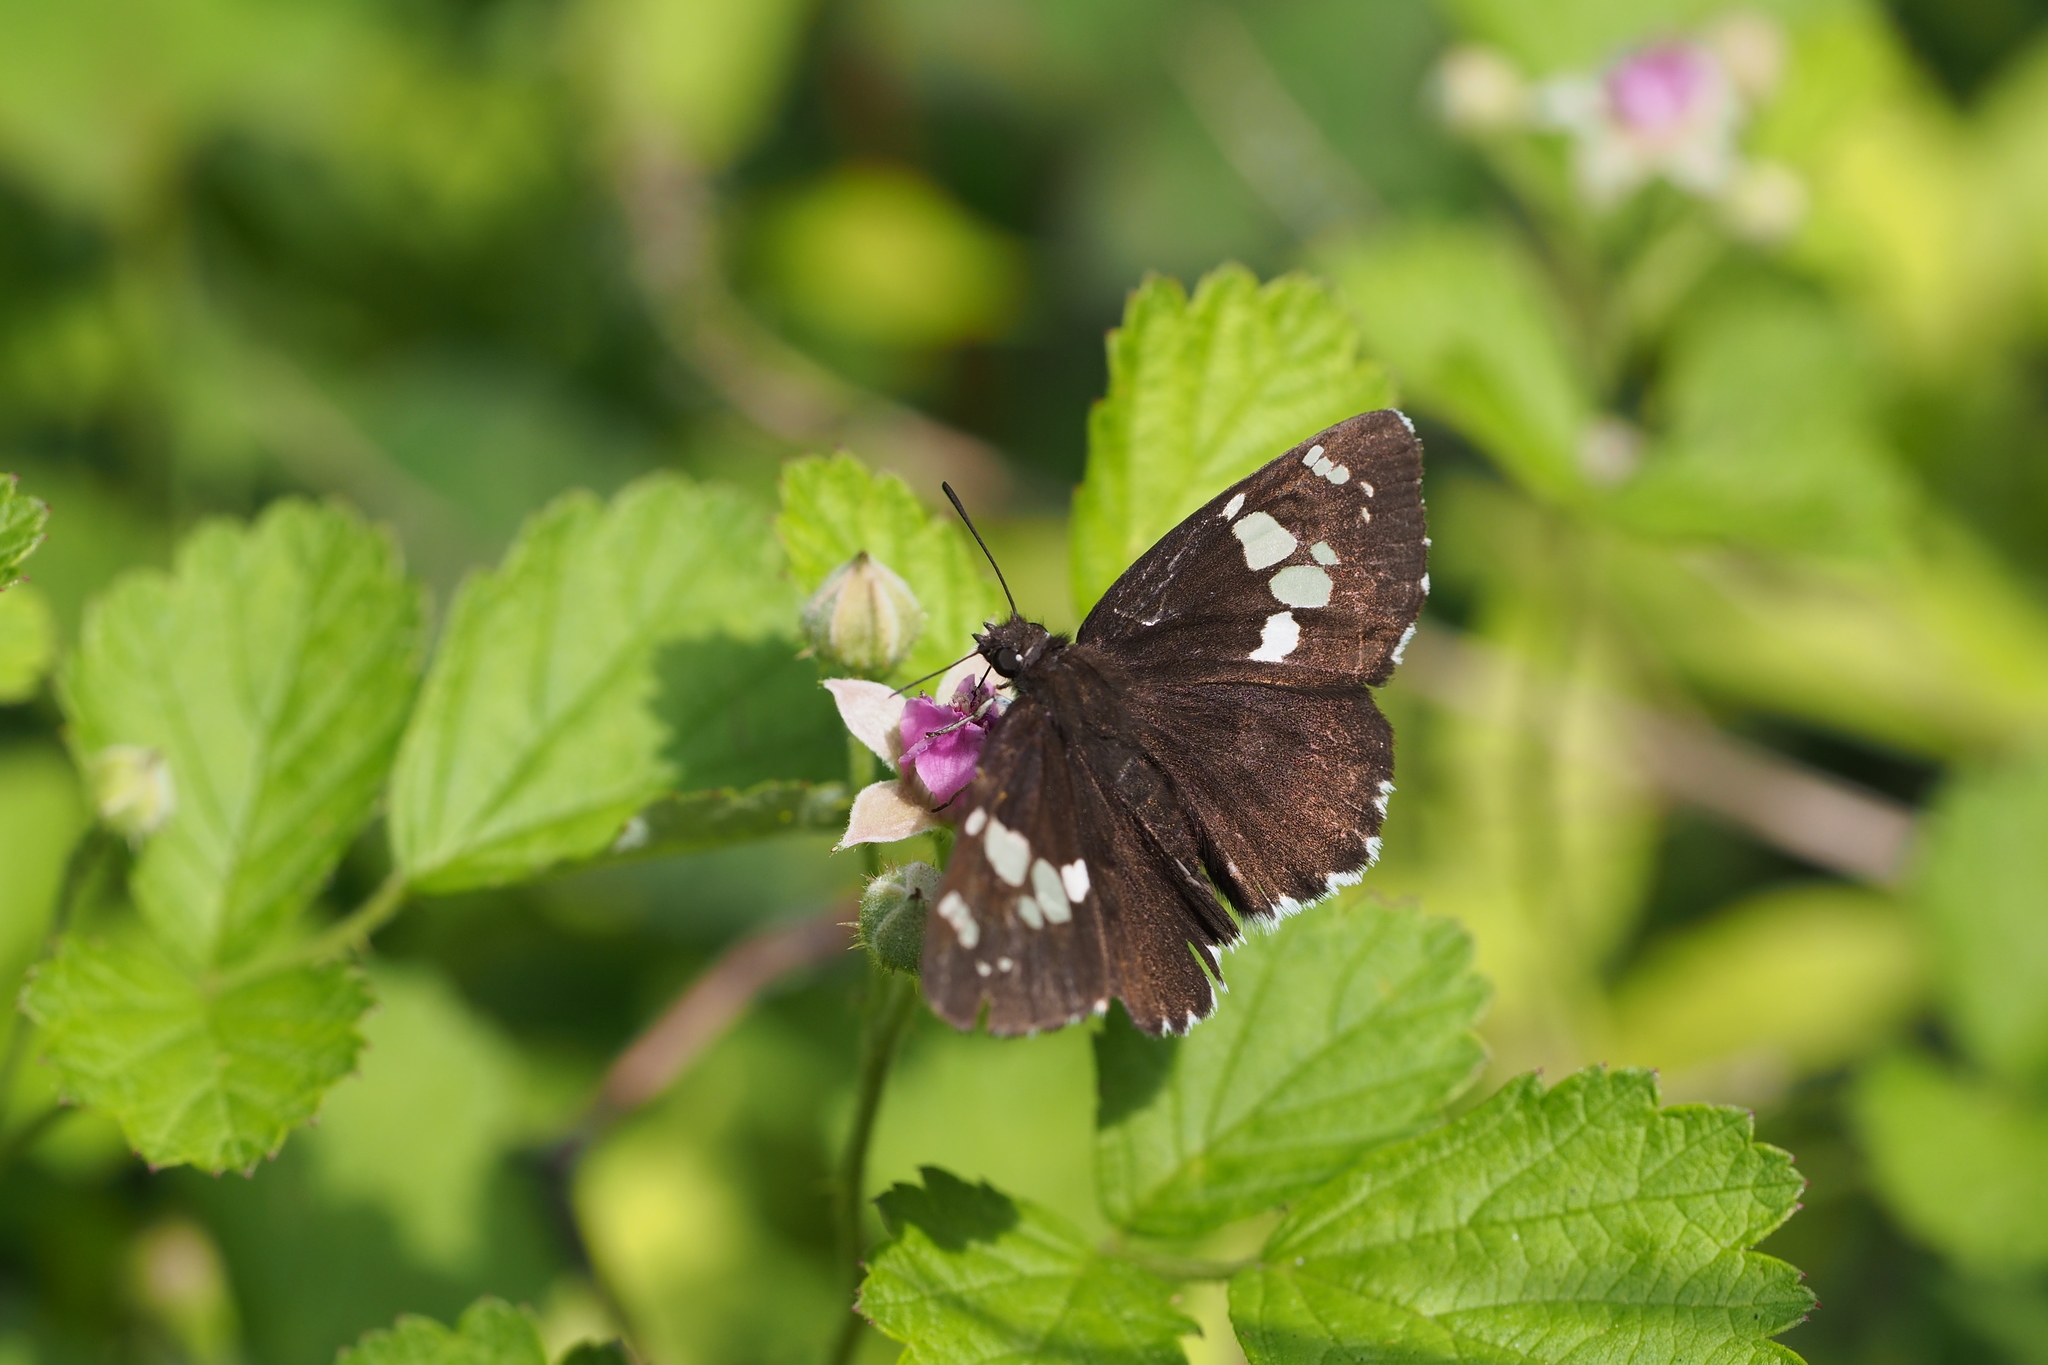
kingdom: Animalia
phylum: Arthropoda
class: Insecta
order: Lepidoptera
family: Hesperiidae
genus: Daimio
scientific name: Daimio tethys
